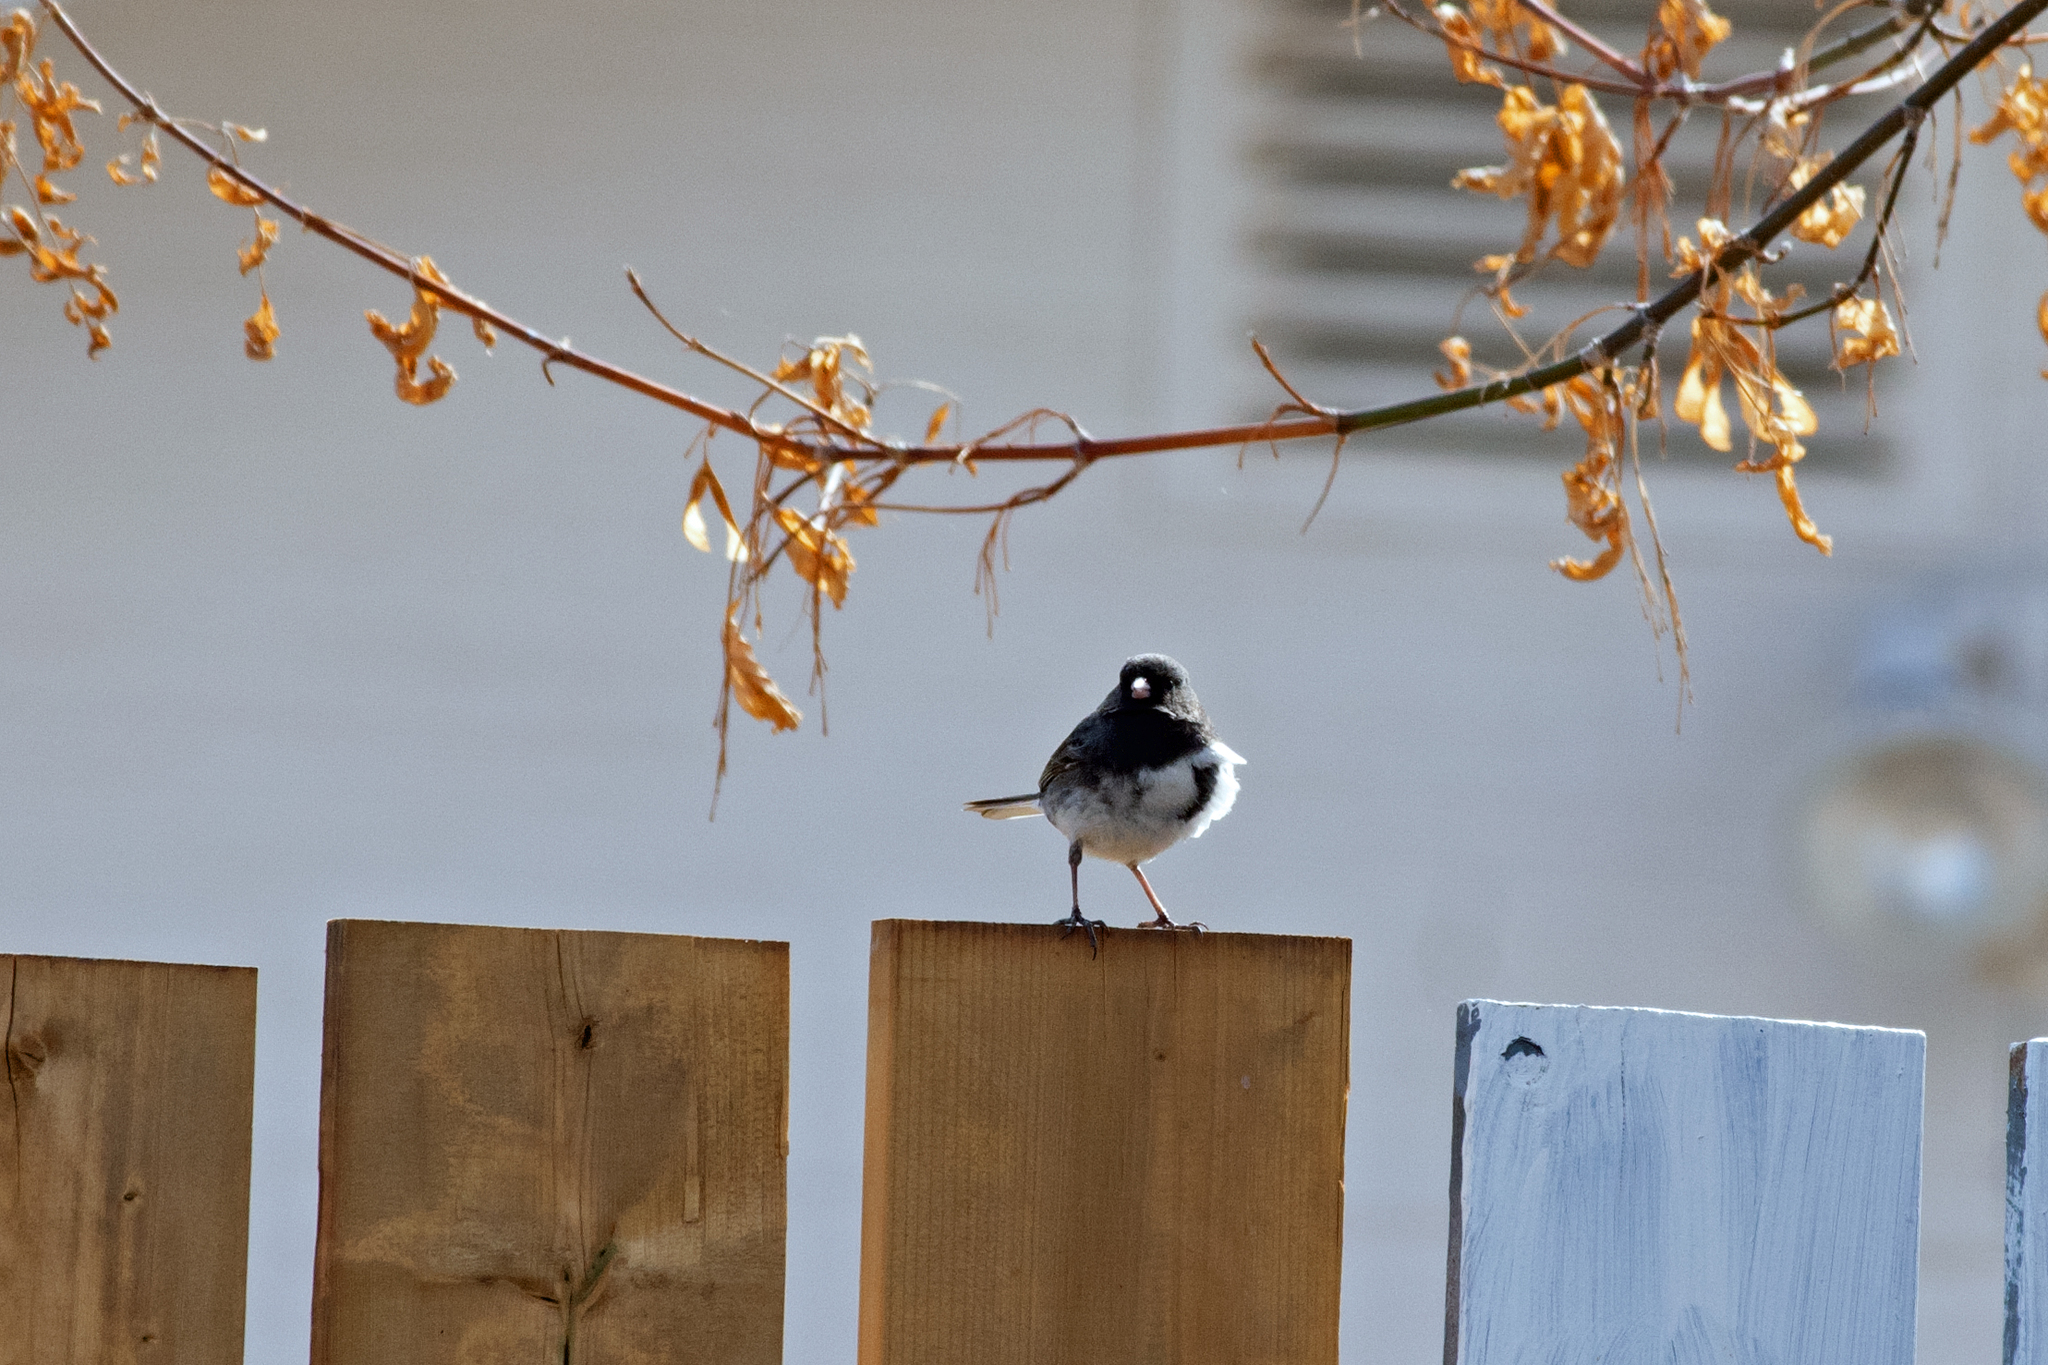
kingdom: Animalia
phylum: Chordata
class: Aves
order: Passeriformes
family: Passerellidae
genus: Junco
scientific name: Junco hyemalis
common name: Dark-eyed junco
